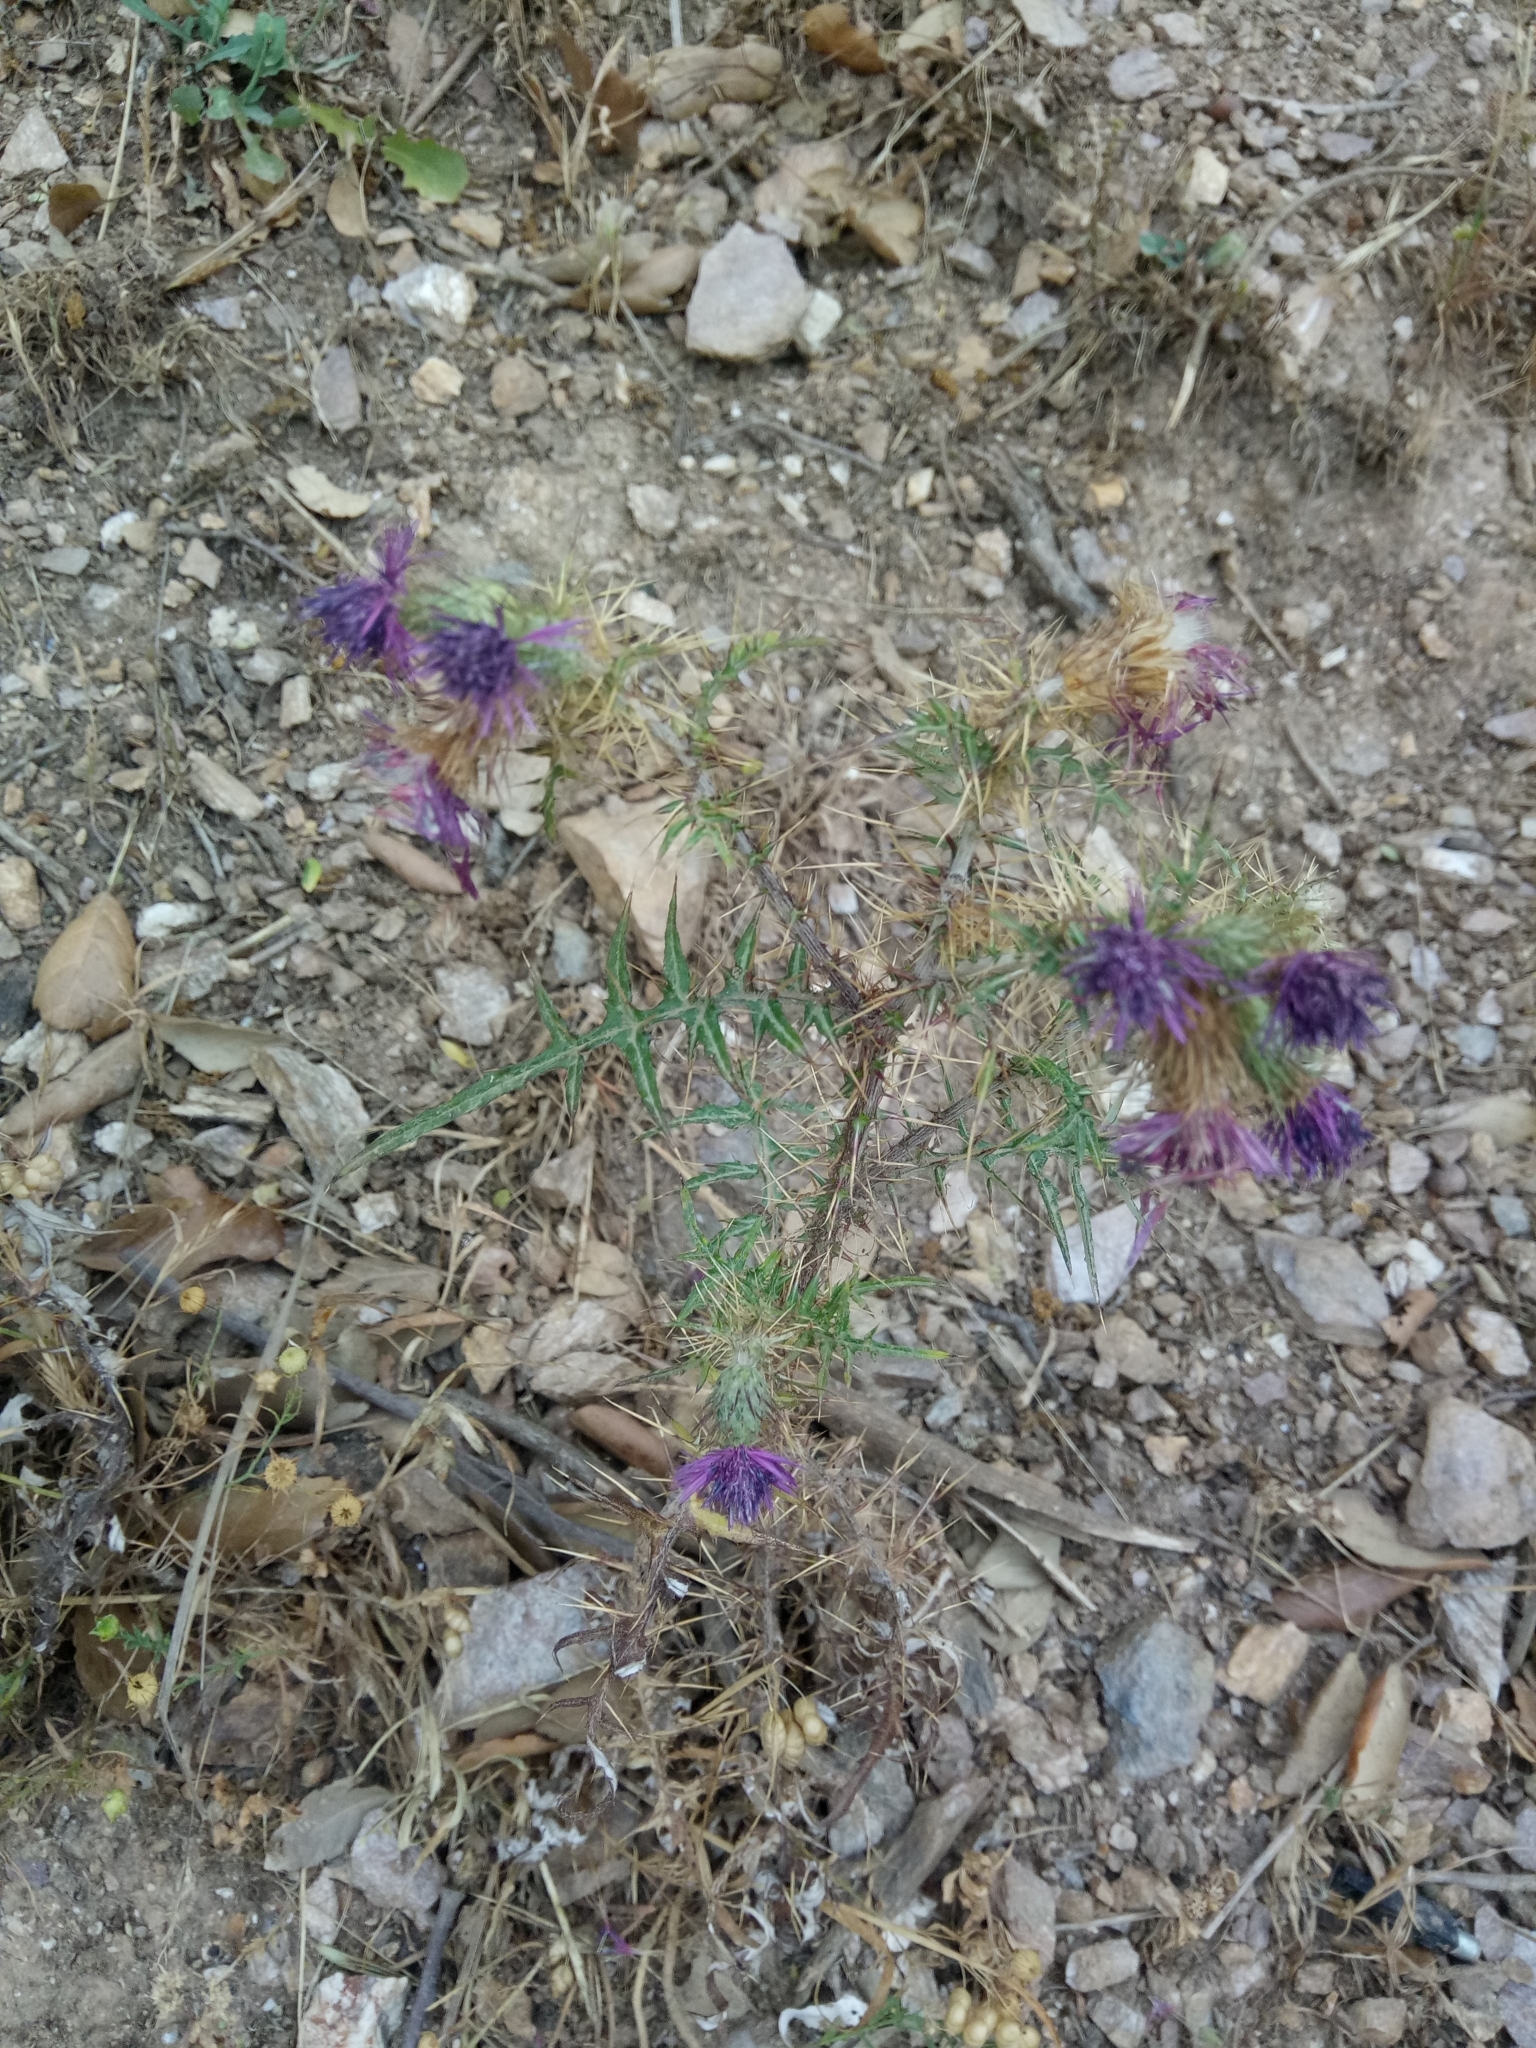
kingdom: Plantae
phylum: Tracheophyta
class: Magnoliopsida
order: Asterales
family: Asteraceae
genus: Galactites
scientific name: Galactites mutabilis
